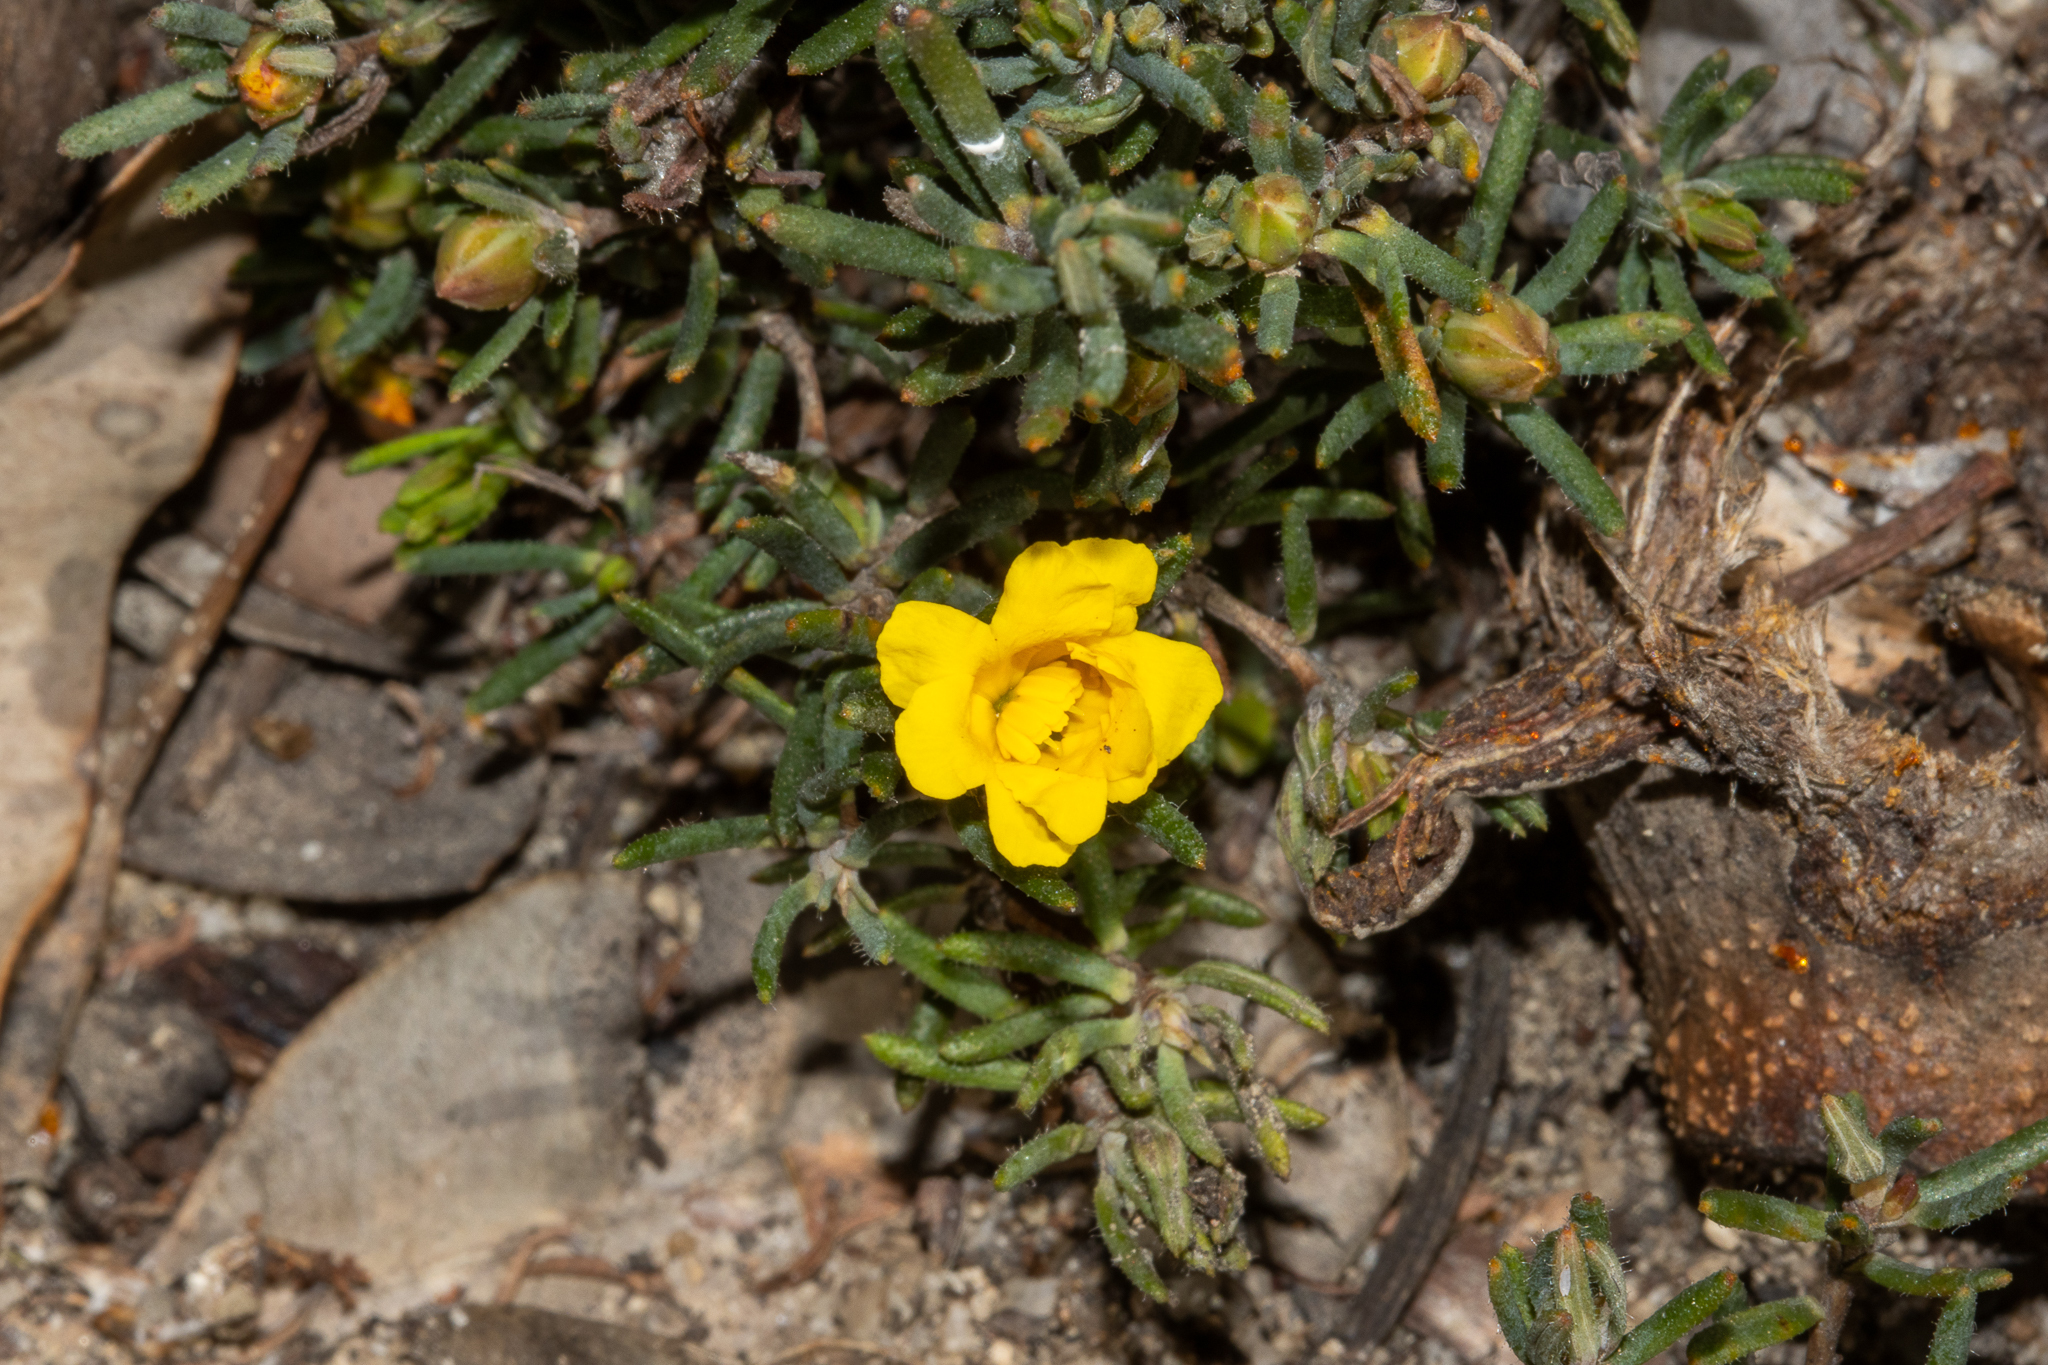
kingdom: Plantae
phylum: Tracheophyta
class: Magnoliopsida
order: Dilleniales
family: Dilleniaceae
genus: Hibbertia
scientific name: Hibbertia aurea
